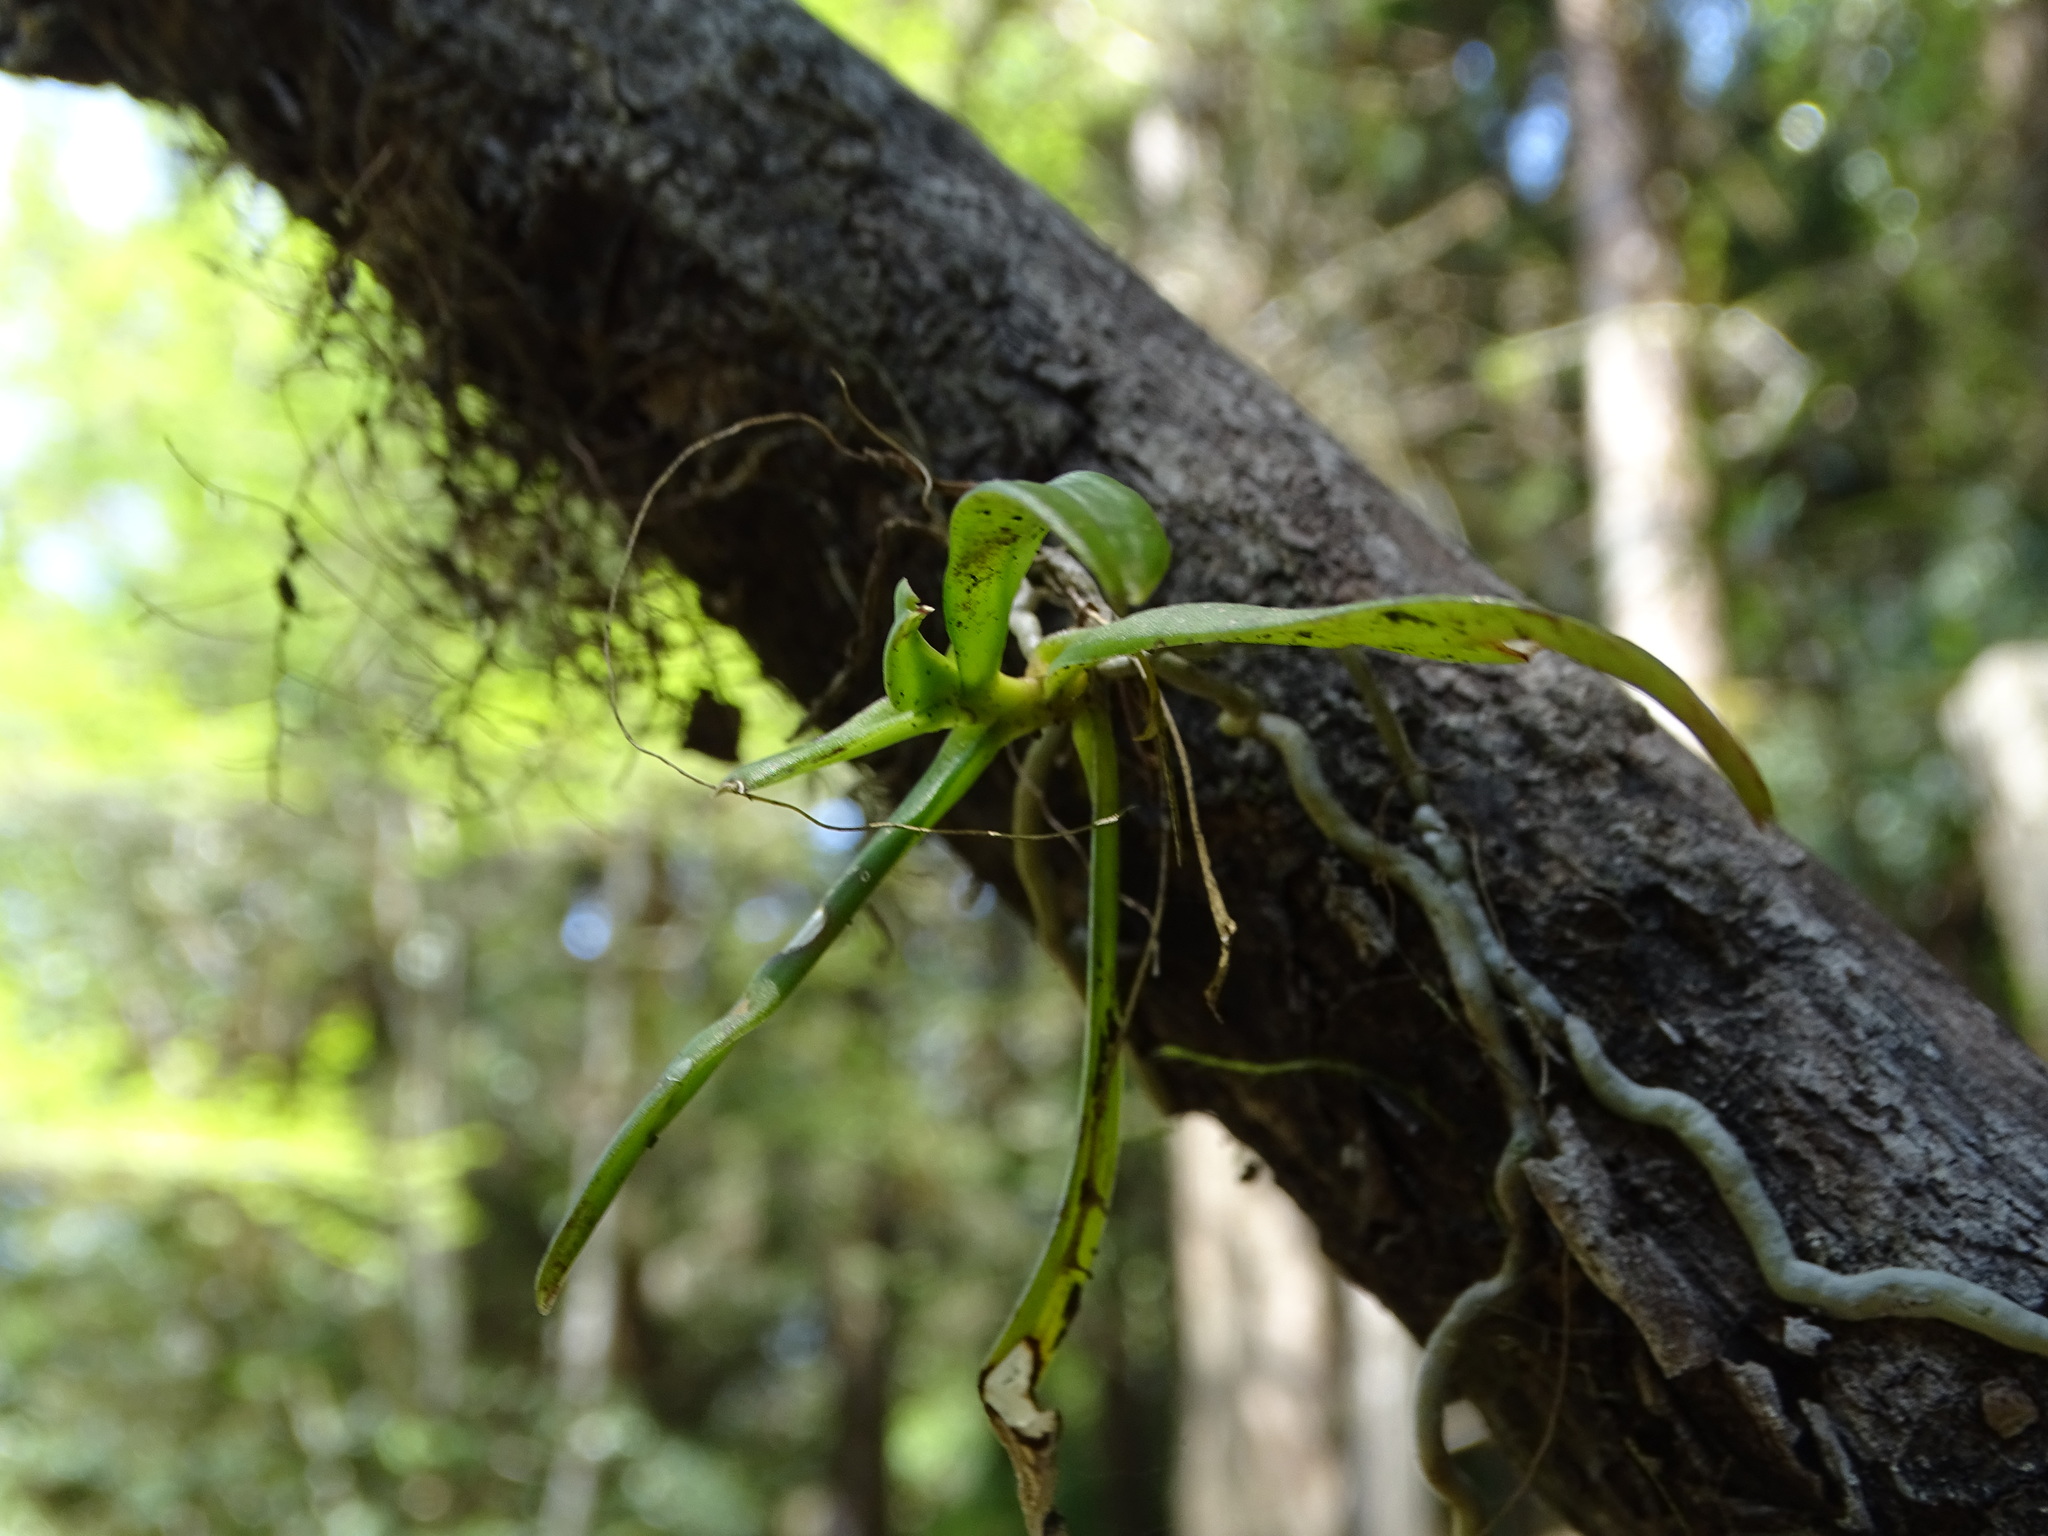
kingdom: Plantae
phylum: Tracheophyta
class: Liliopsida
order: Asparagales
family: Orchidaceae
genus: Thrixspermum
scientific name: Thrixspermum
